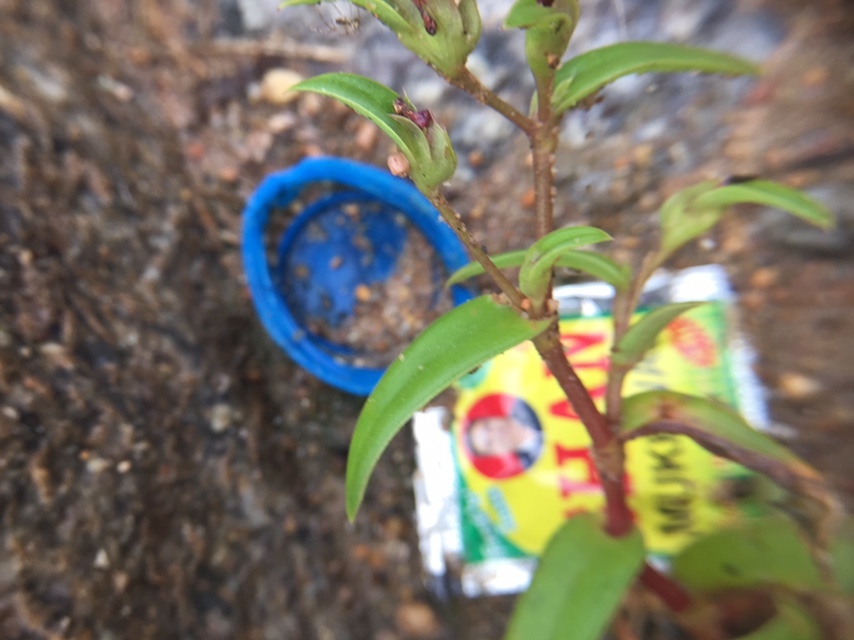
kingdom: Plantae
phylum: Tracheophyta
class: Liliopsida
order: Commelinales
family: Commelinaceae
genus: Cyanotis
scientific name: Cyanotis fasciculata
